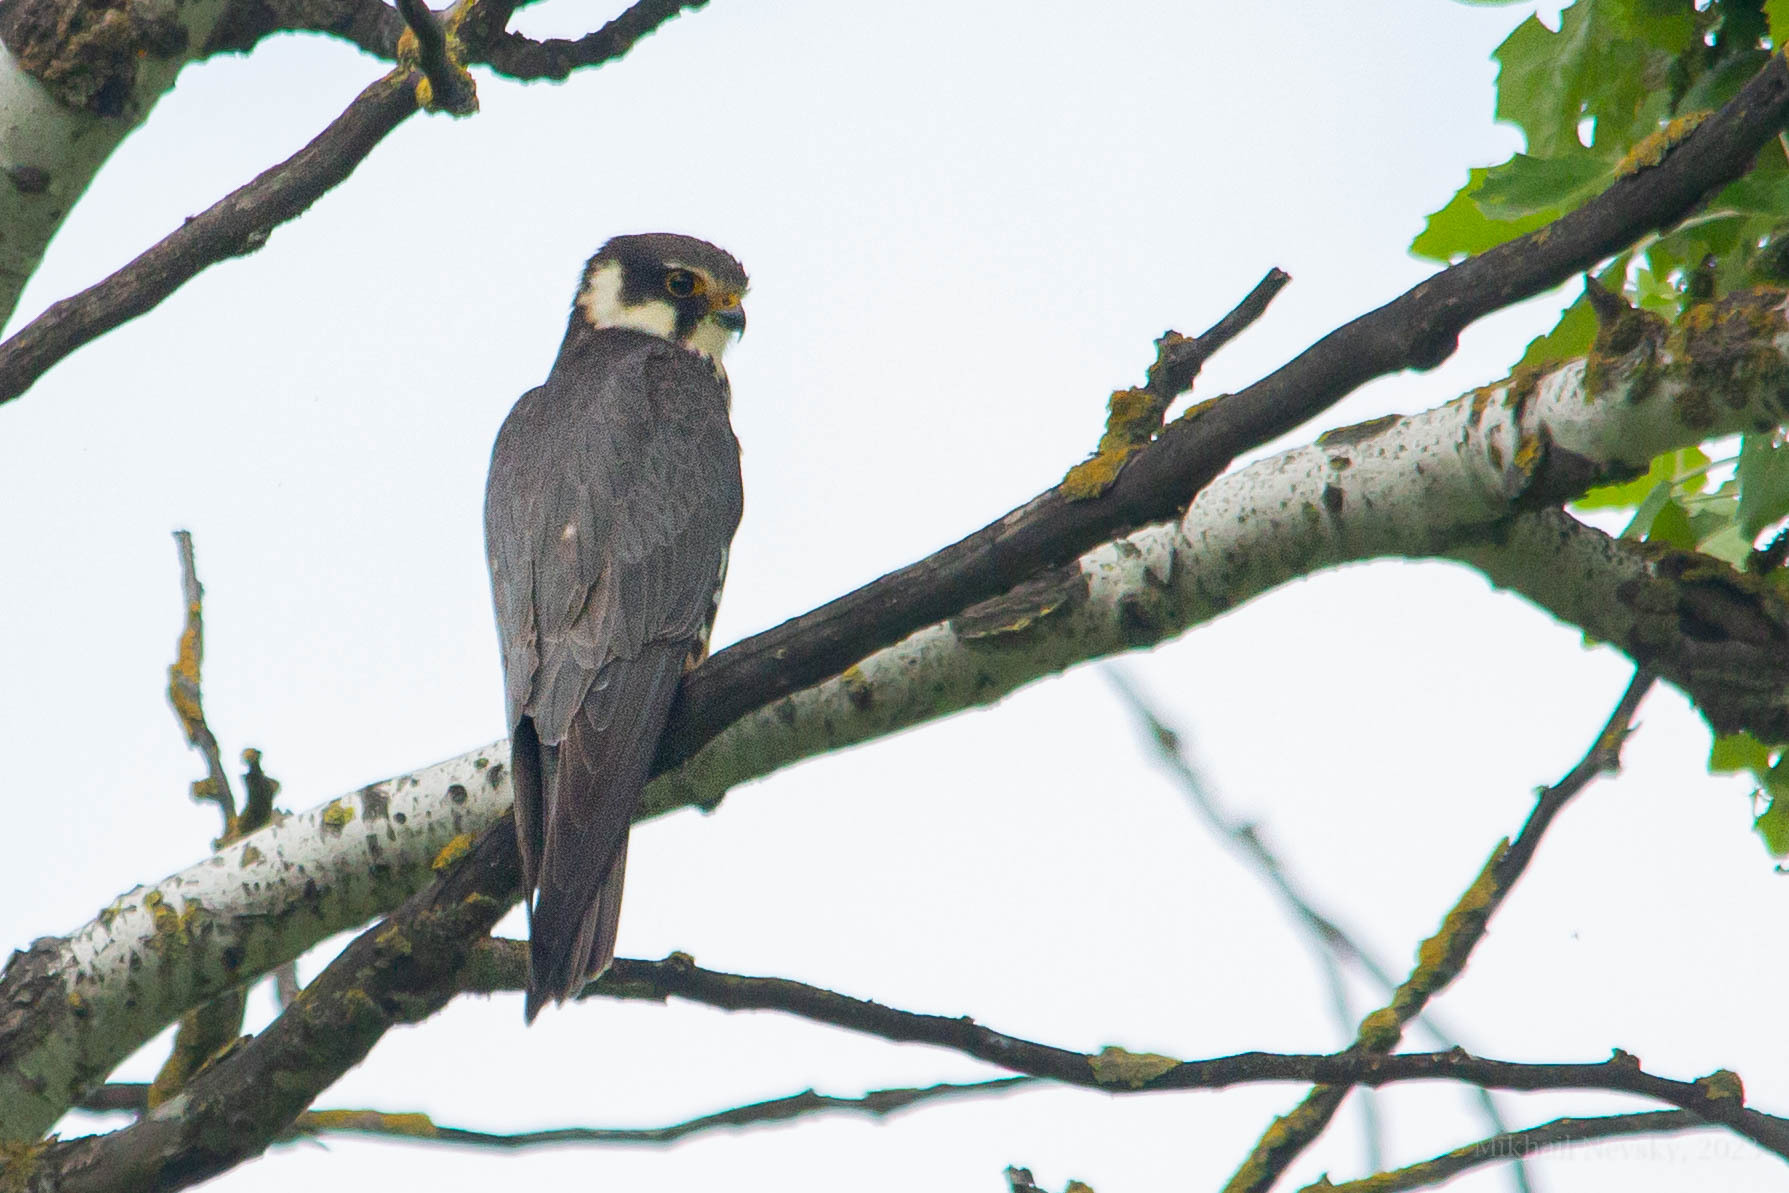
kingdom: Animalia
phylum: Chordata
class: Aves
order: Falconiformes
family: Falconidae
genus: Falco
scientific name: Falco subbuteo
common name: Eurasian hobby
